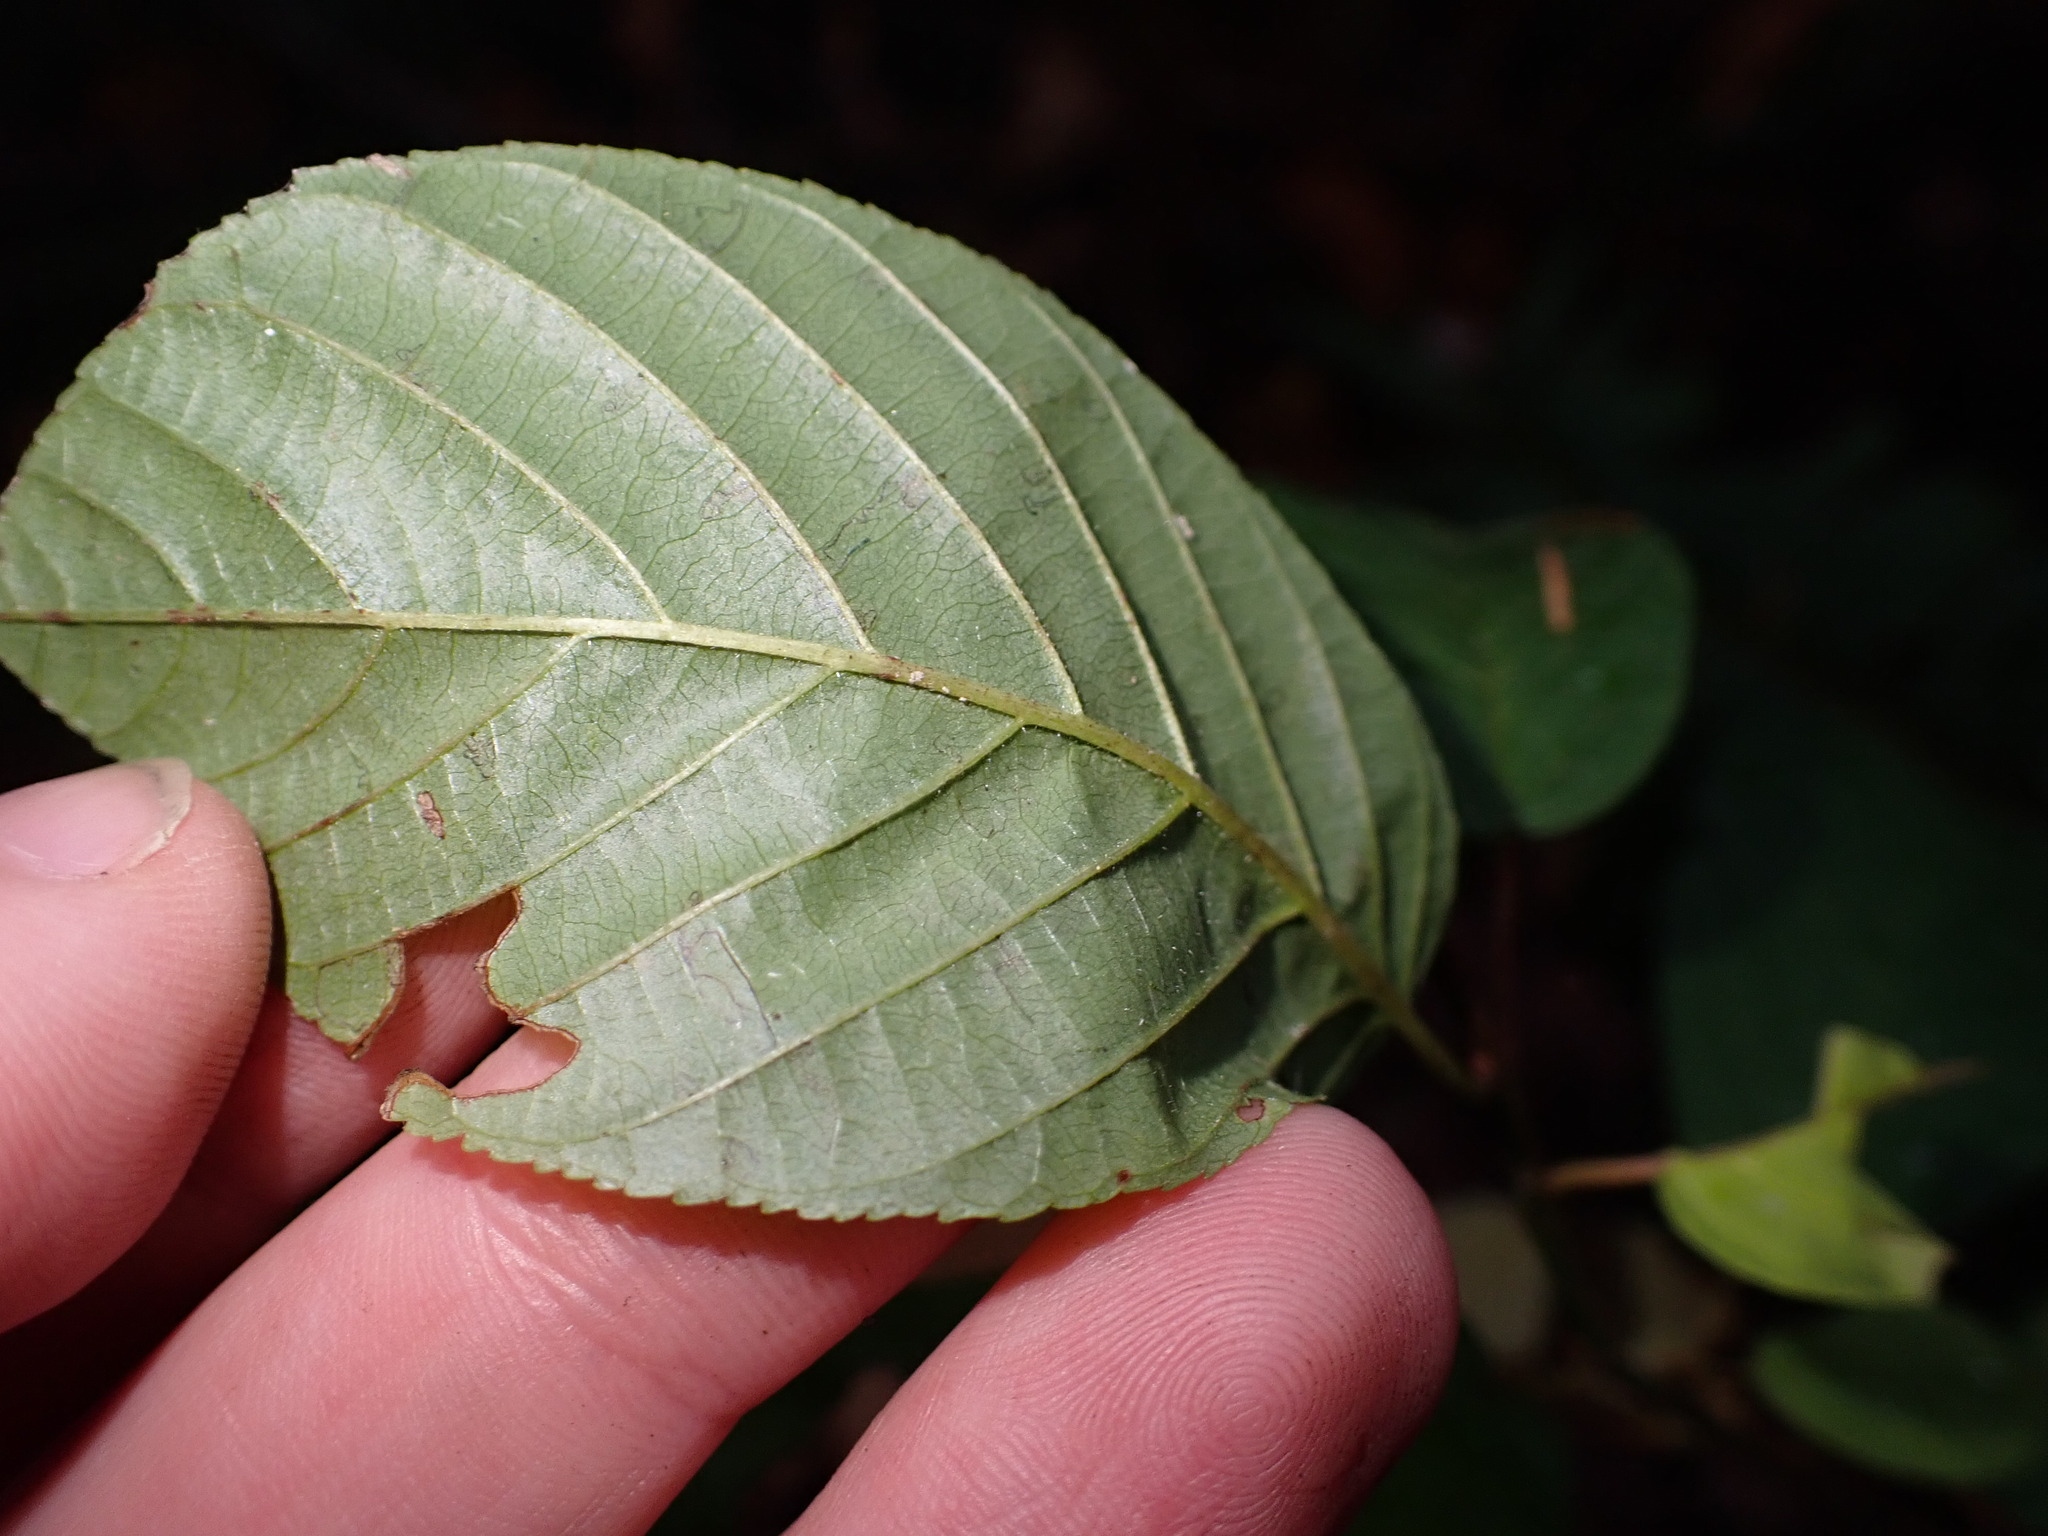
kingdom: Plantae
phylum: Tracheophyta
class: Magnoliopsida
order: Rosales
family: Rhamnaceae
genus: Frangula
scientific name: Frangula purshiana
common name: Cascara buckthorn
